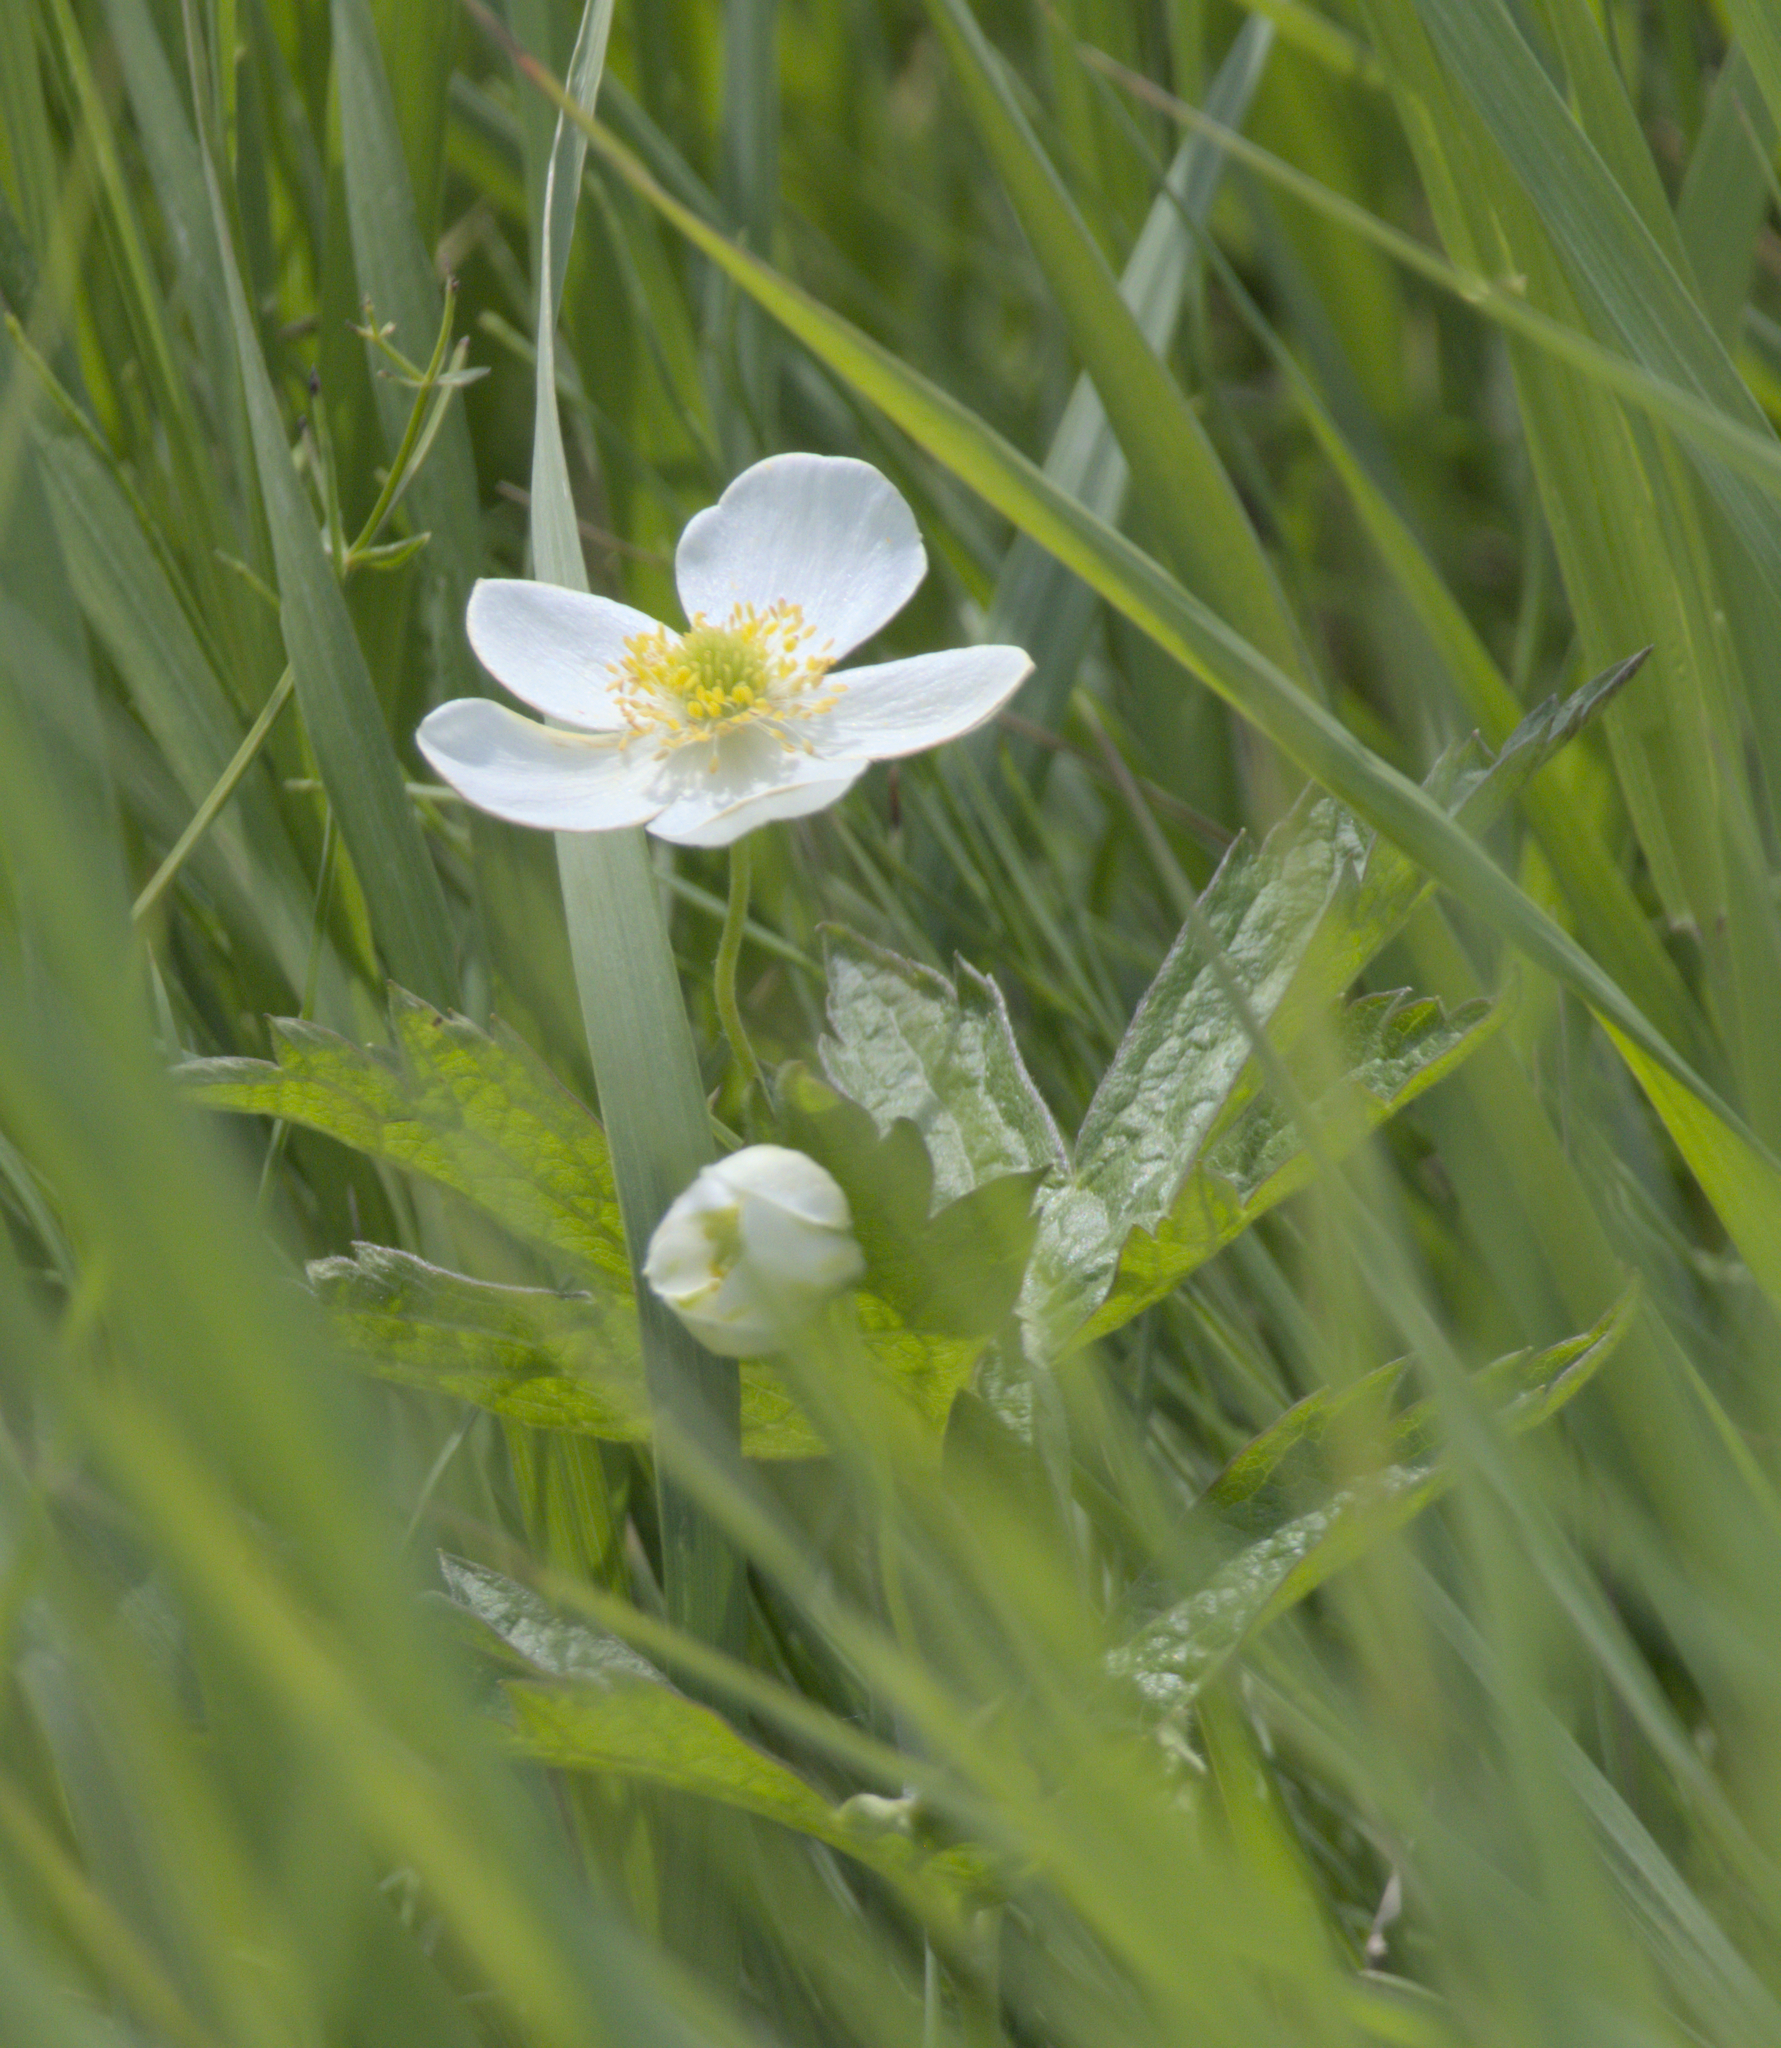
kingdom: Plantae
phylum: Tracheophyta
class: Magnoliopsida
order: Ranunculales
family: Ranunculaceae
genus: Anemonastrum
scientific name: Anemonastrum canadense
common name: Canada anemone
